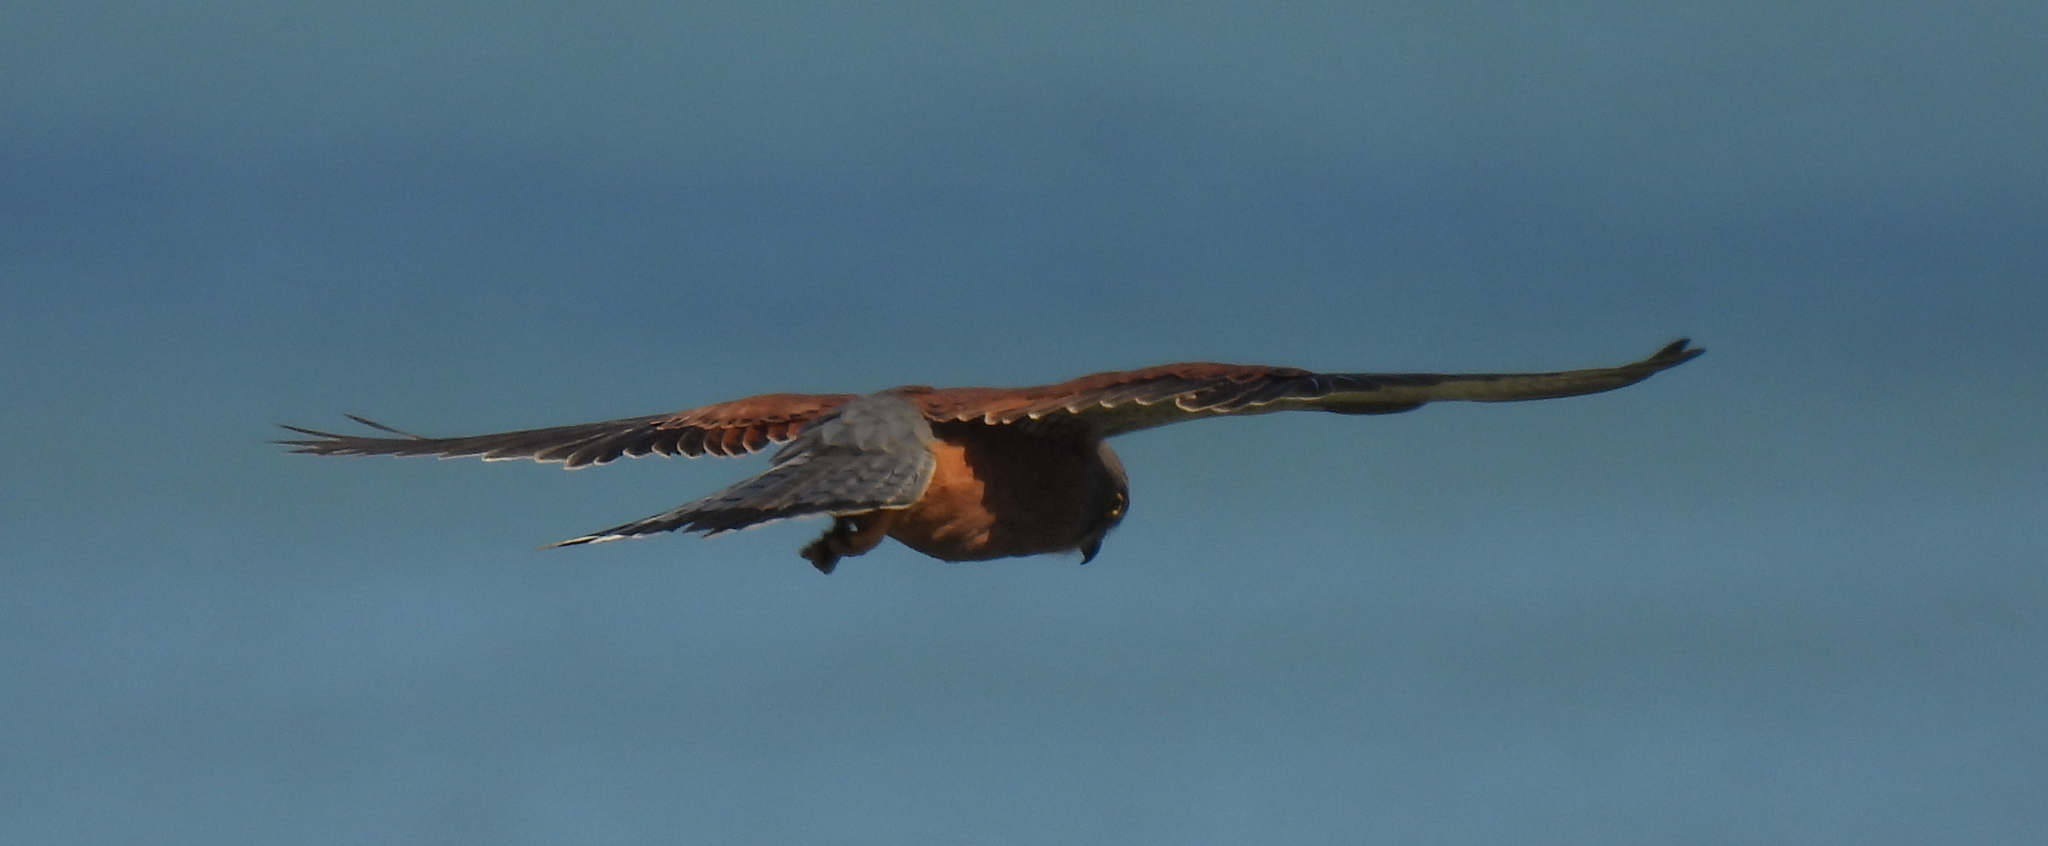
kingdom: Animalia
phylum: Chordata
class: Aves
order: Falconiformes
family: Falconidae
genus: Falco
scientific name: Falco rupicolus
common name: Rock kestrel
